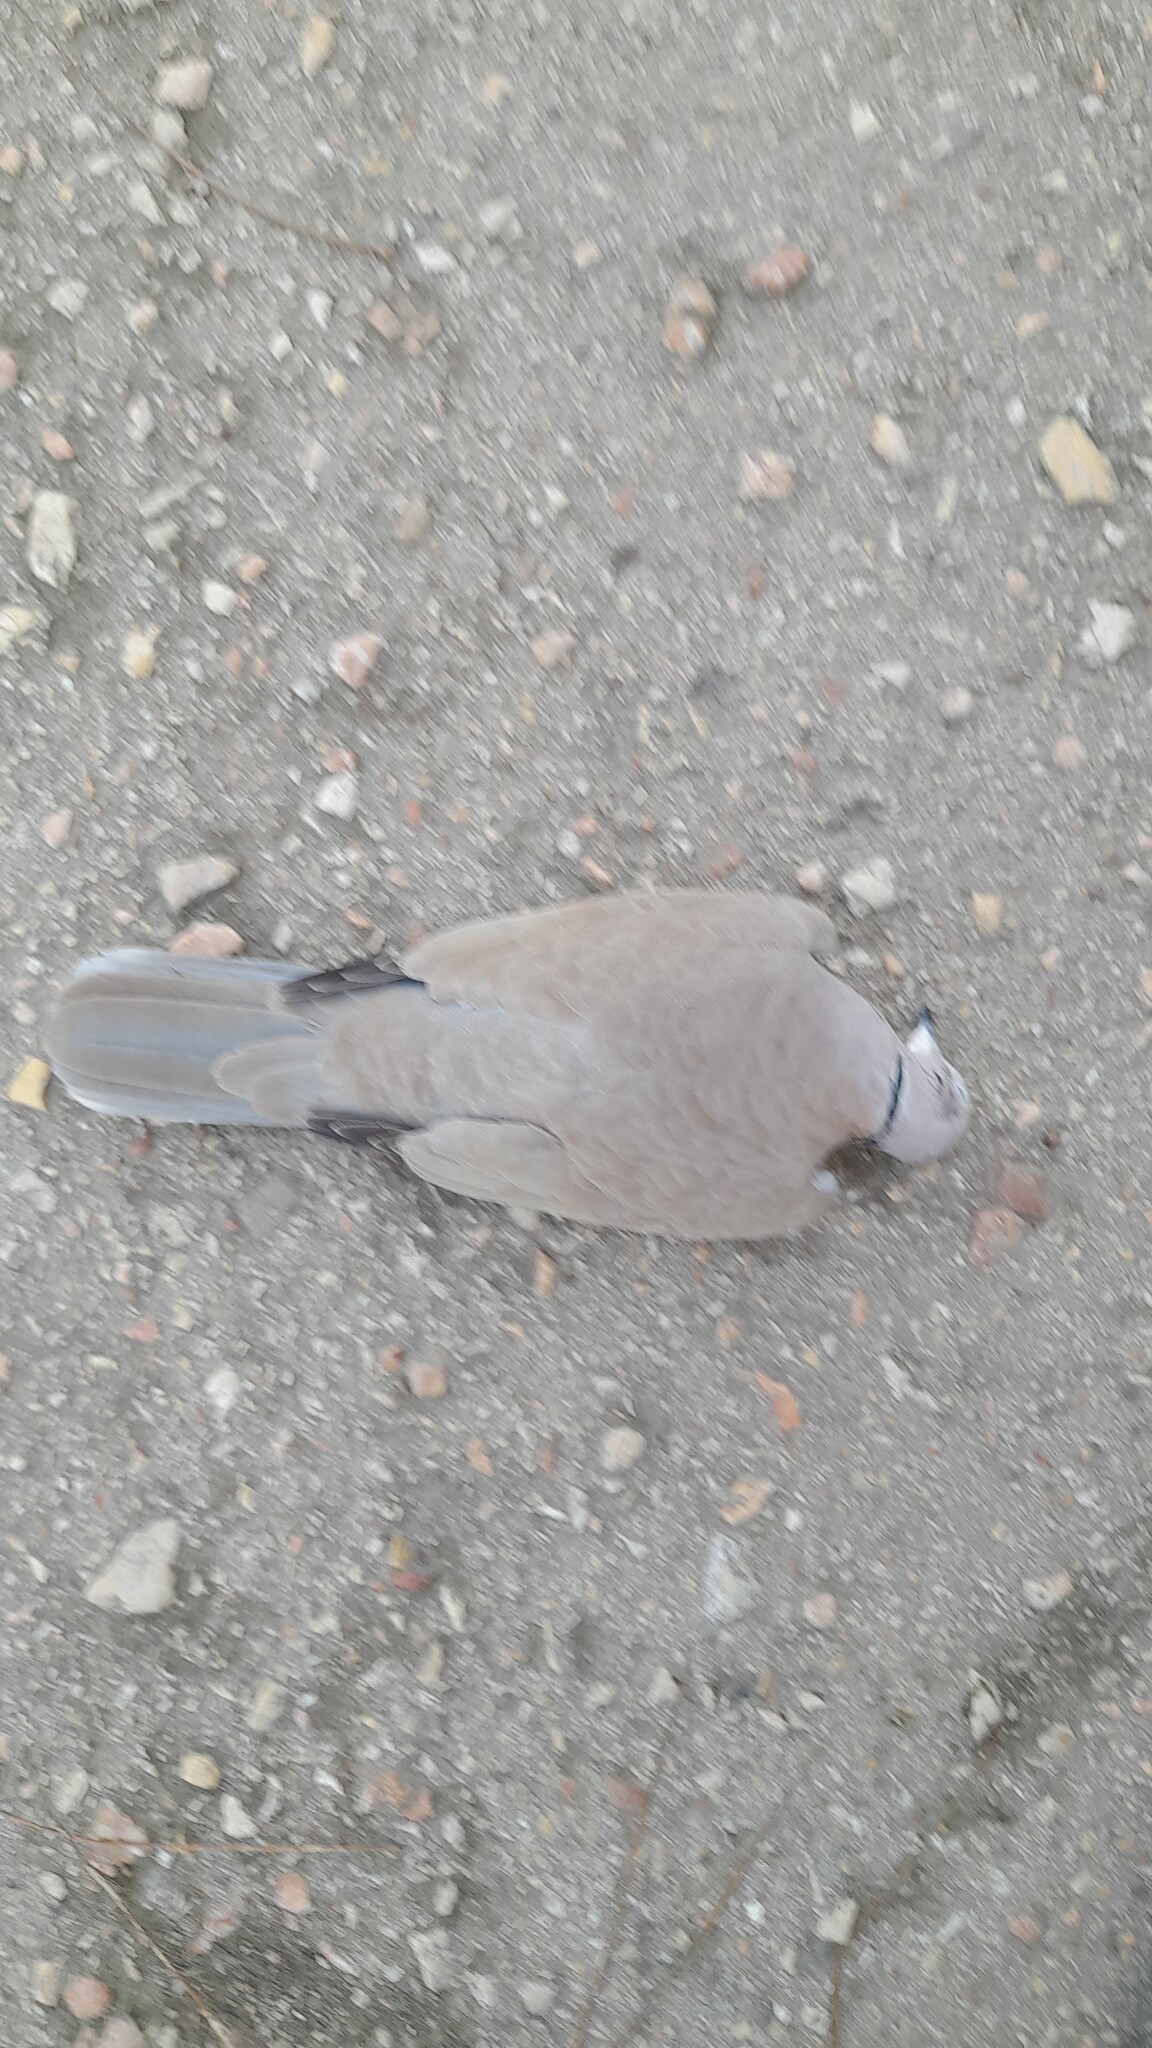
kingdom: Animalia
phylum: Chordata
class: Aves
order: Columbiformes
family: Columbidae
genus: Streptopelia
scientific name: Streptopelia decaocto
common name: Eurasian collared dove
